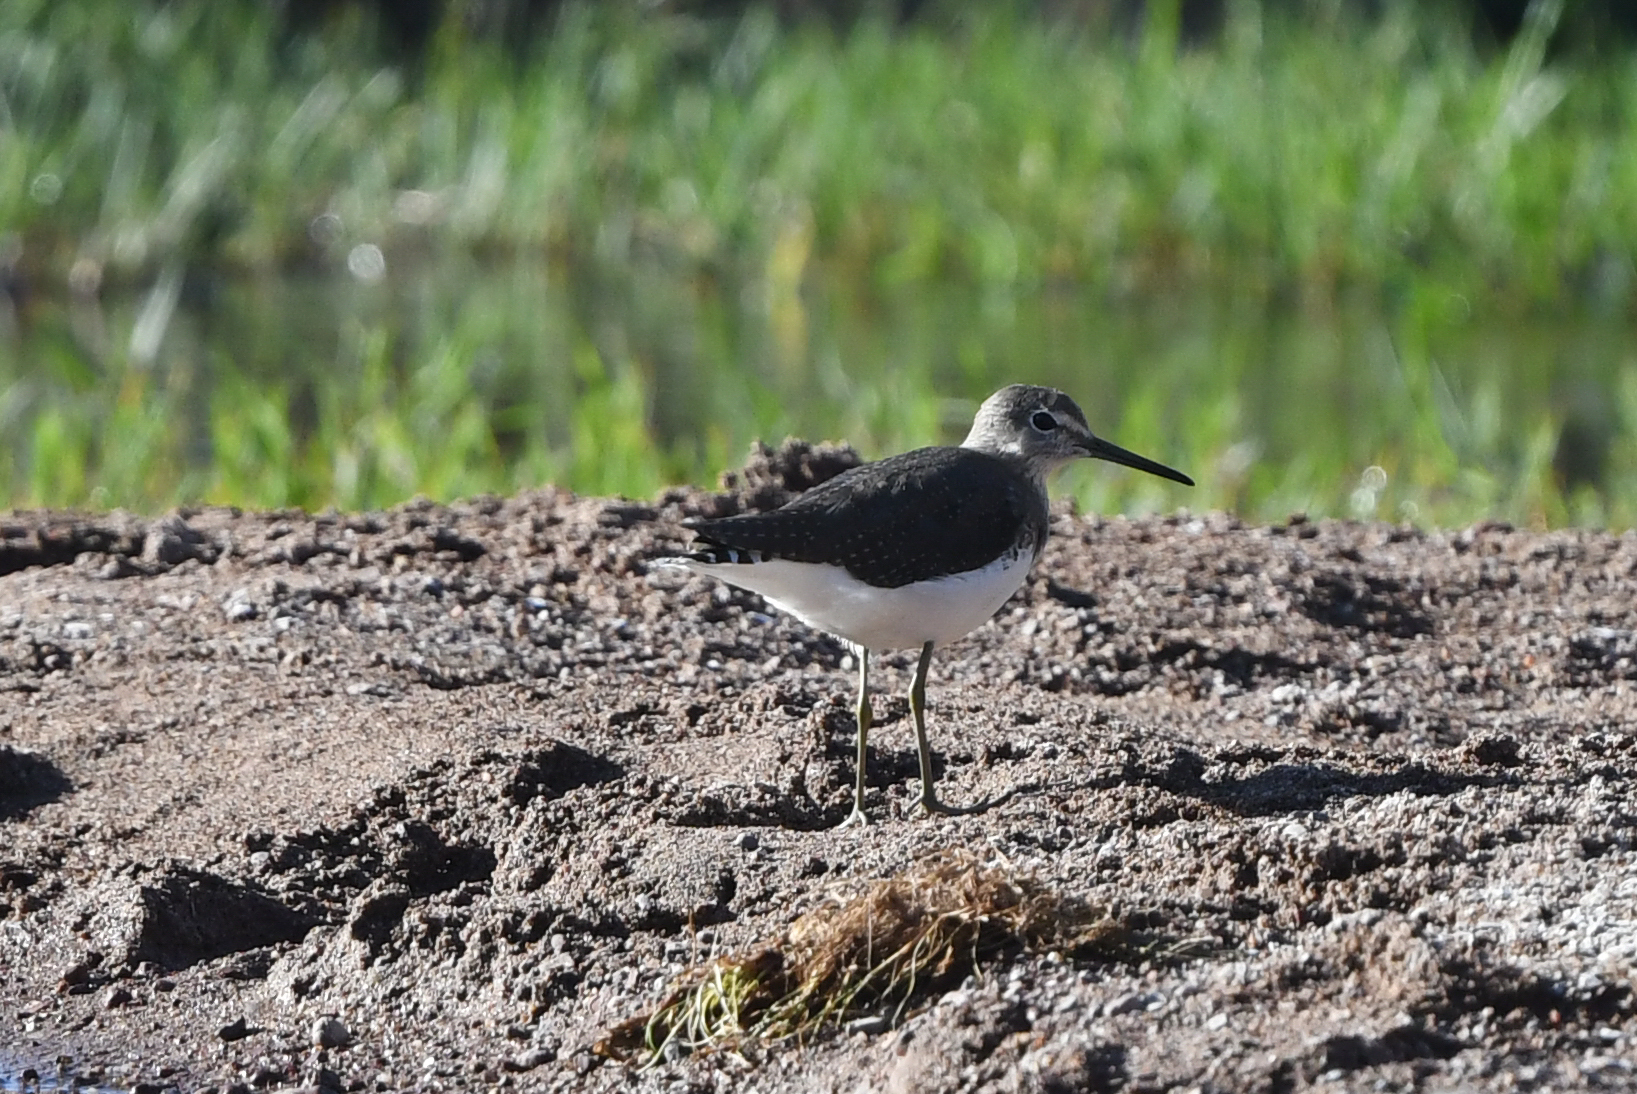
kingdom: Animalia
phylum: Chordata
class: Aves
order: Charadriiformes
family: Scolopacidae
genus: Tringa
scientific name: Tringa ochropus
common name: Green sandpiper
